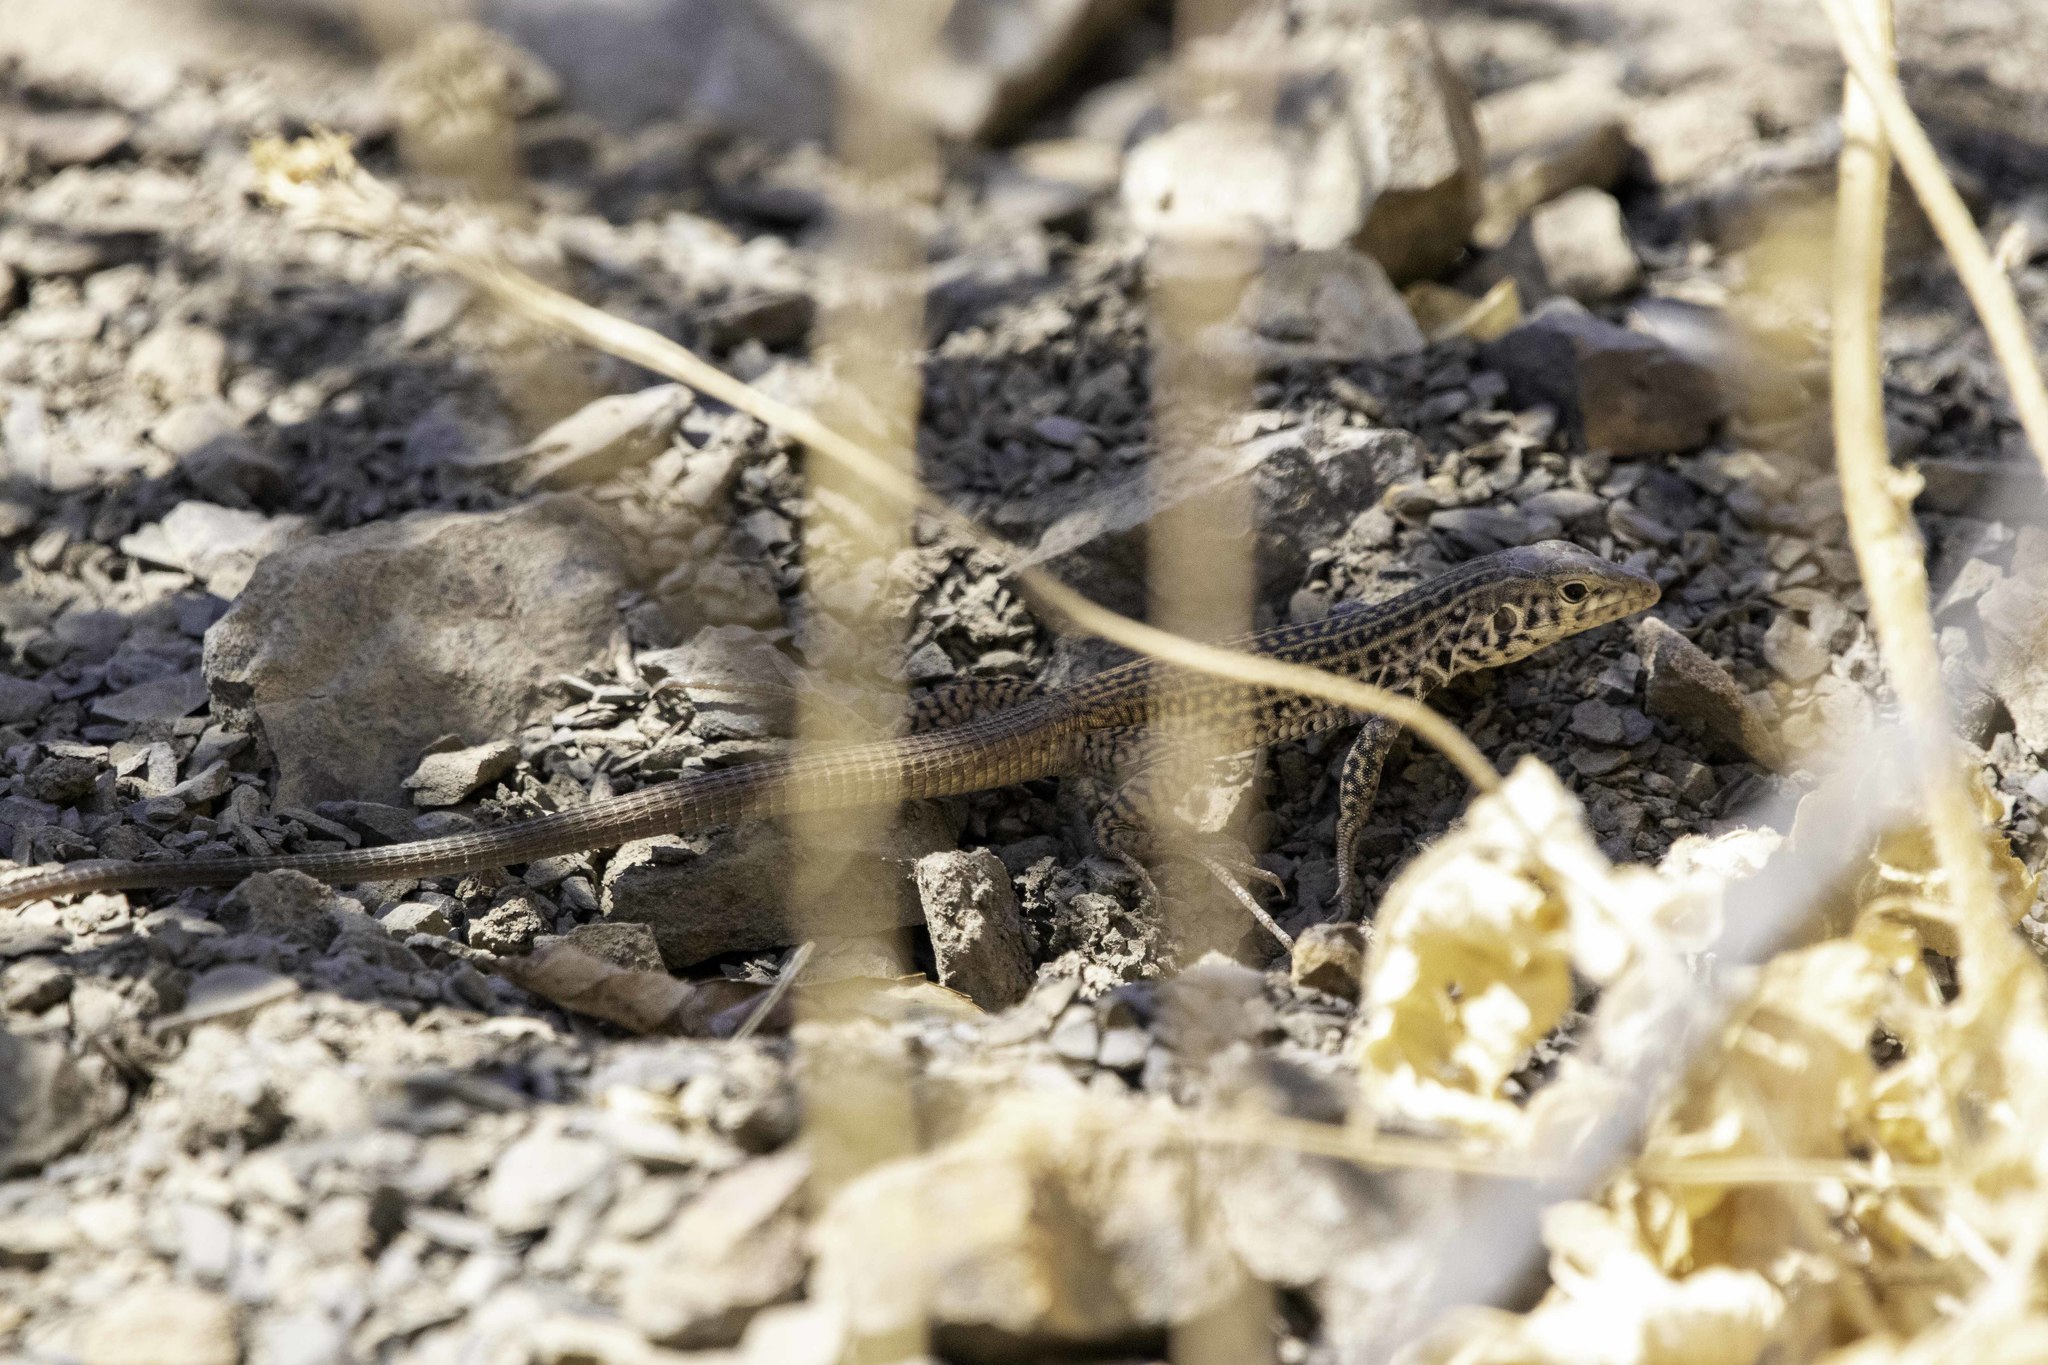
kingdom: Animalia
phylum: Chordata
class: Squamata
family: Teiidae
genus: Aspidoscelis
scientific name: Aspidoscelis tigris
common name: Tiger whiptail
